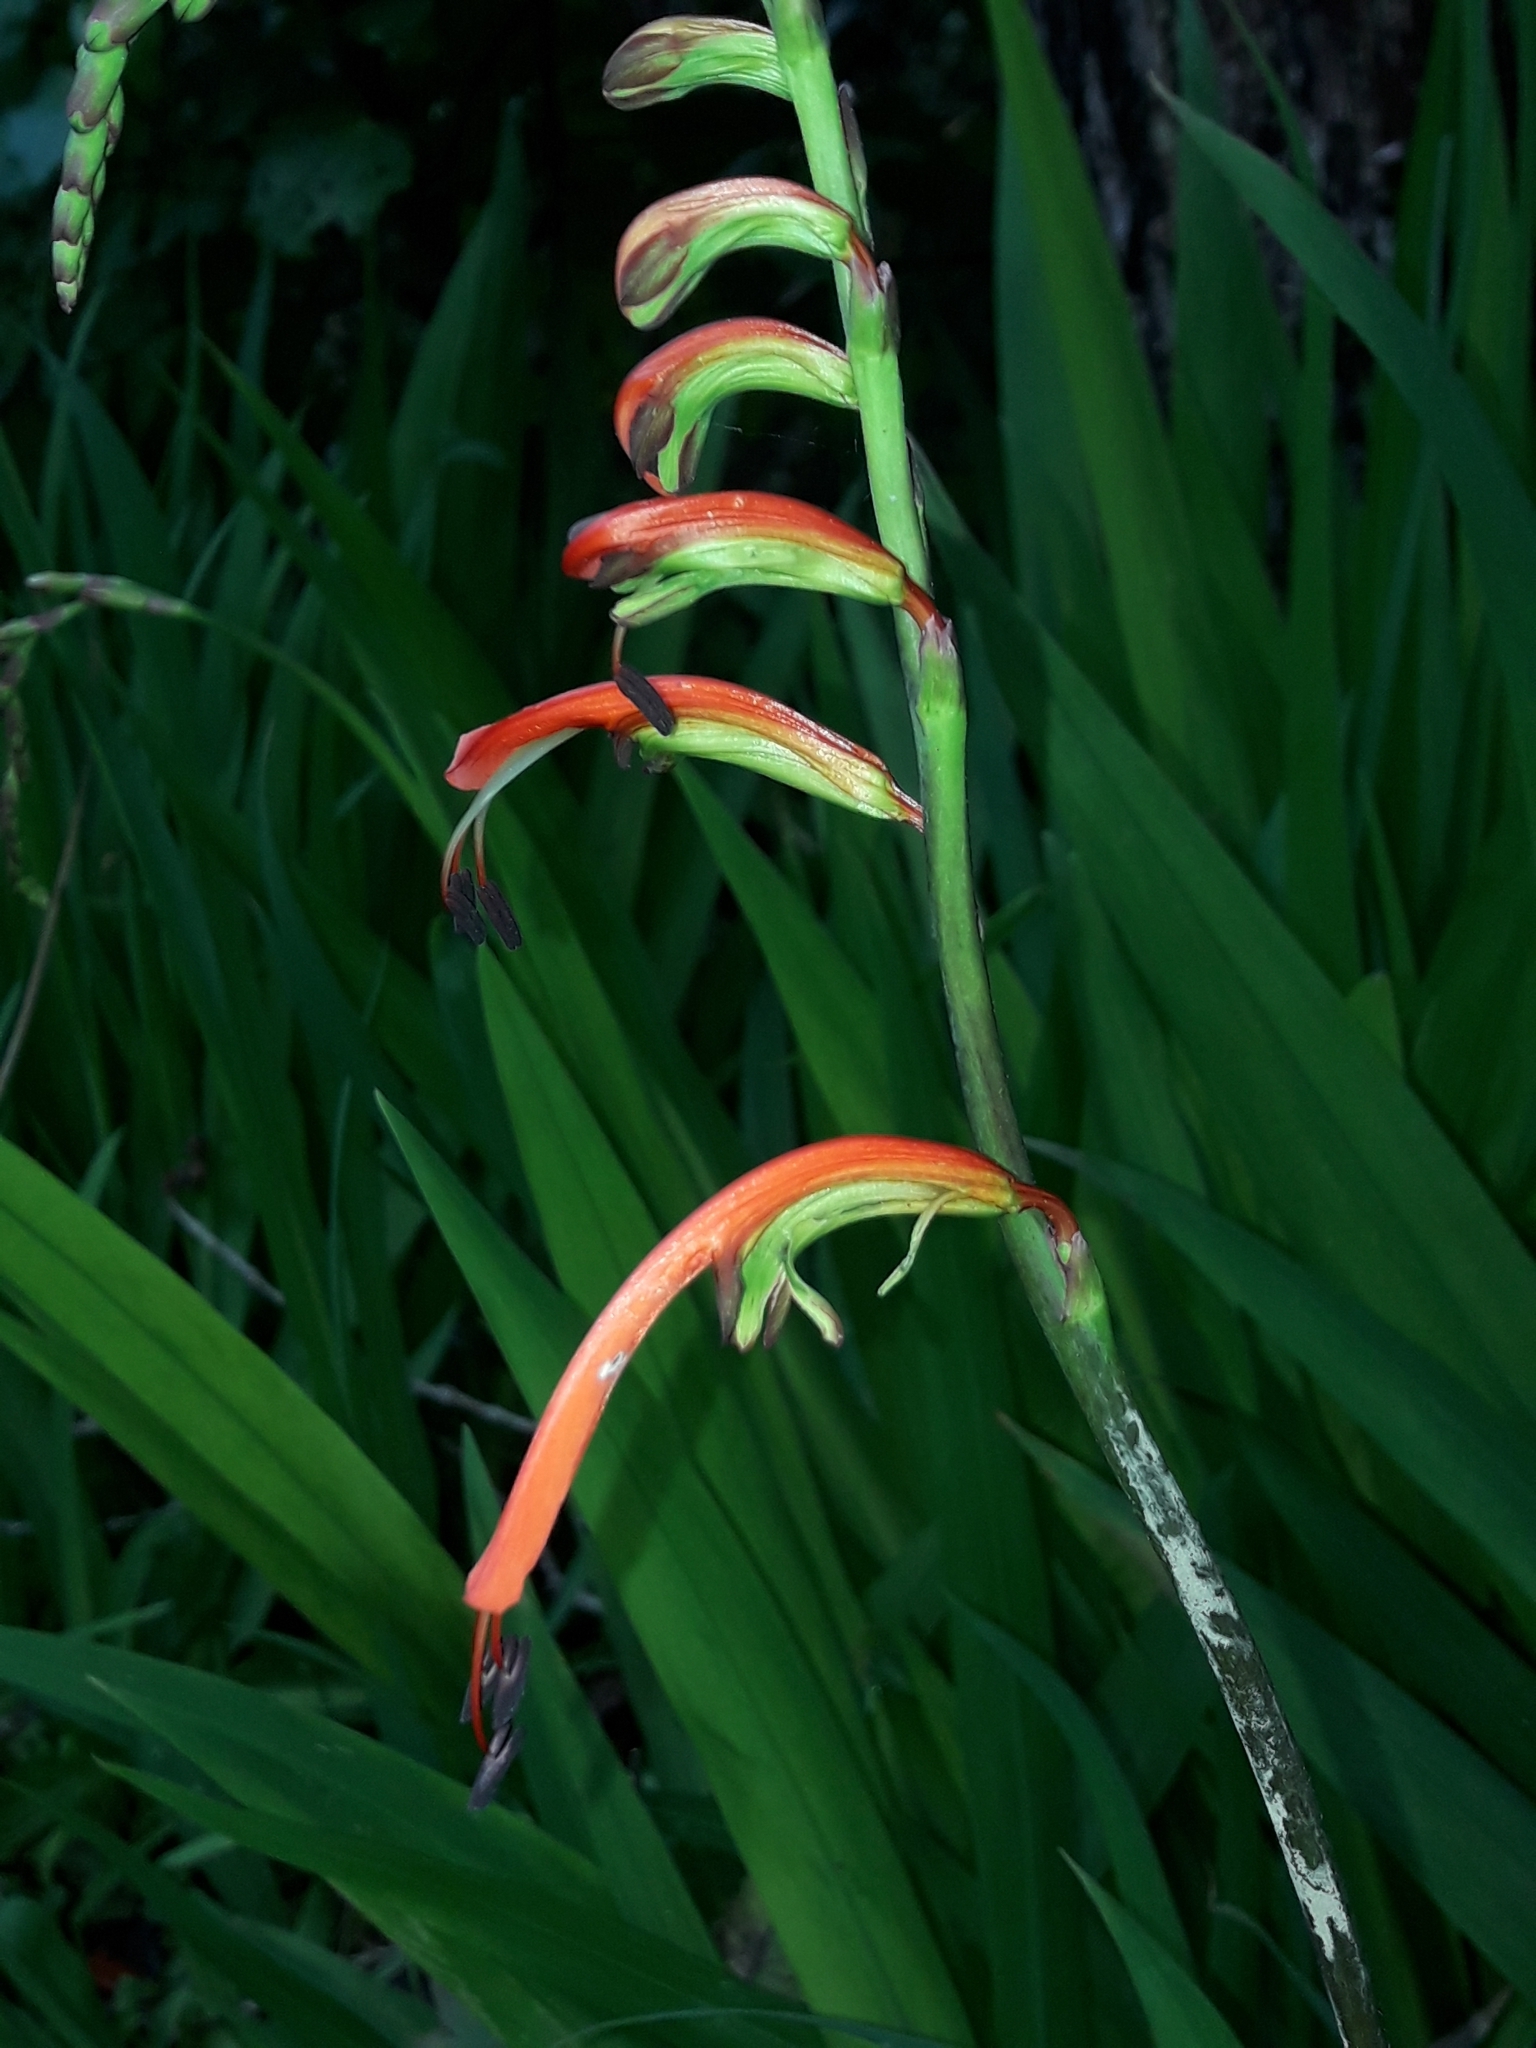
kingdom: Plantae
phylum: Tracheophyta
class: Liliopsida
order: Asparagales
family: Iridaceae
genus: Chasmanthe
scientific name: Chasmanthe bicolor
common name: Bicolor cobra lily
